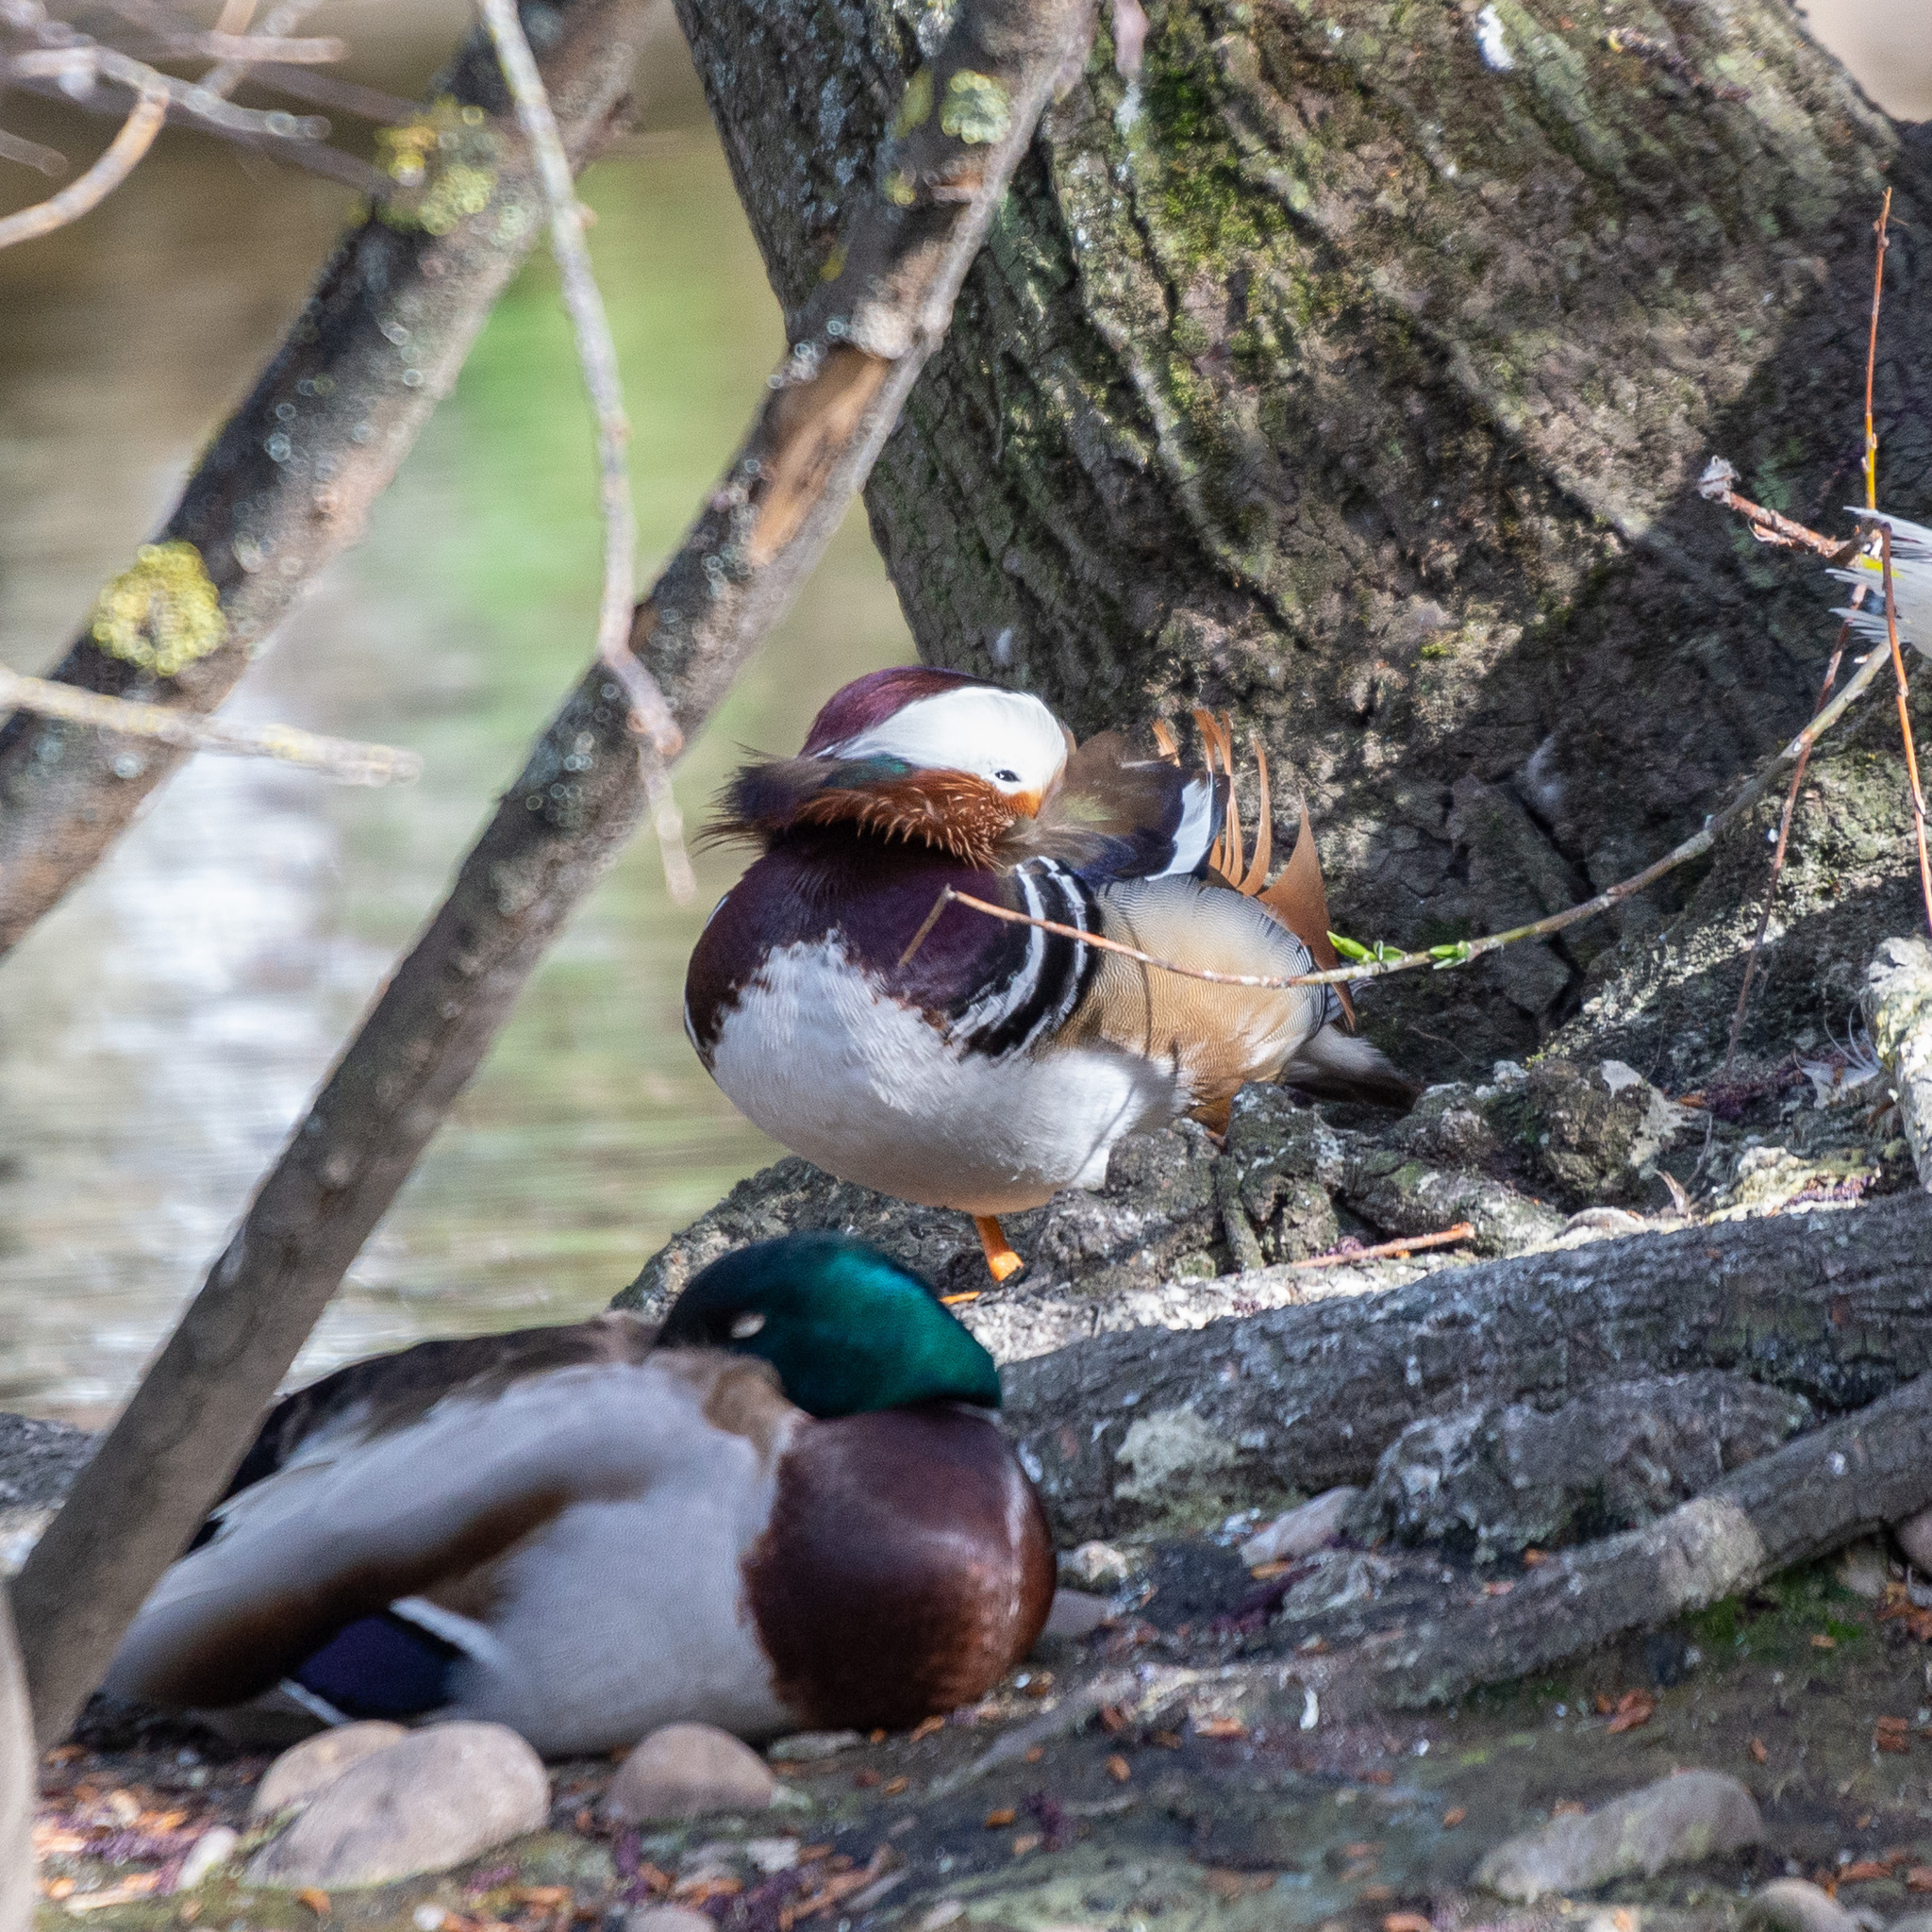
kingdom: Animalia
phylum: Chordata
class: Aves
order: Anseriformes
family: Anatidae
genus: Aix
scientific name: Aix galericulata
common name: Mandarin duck
